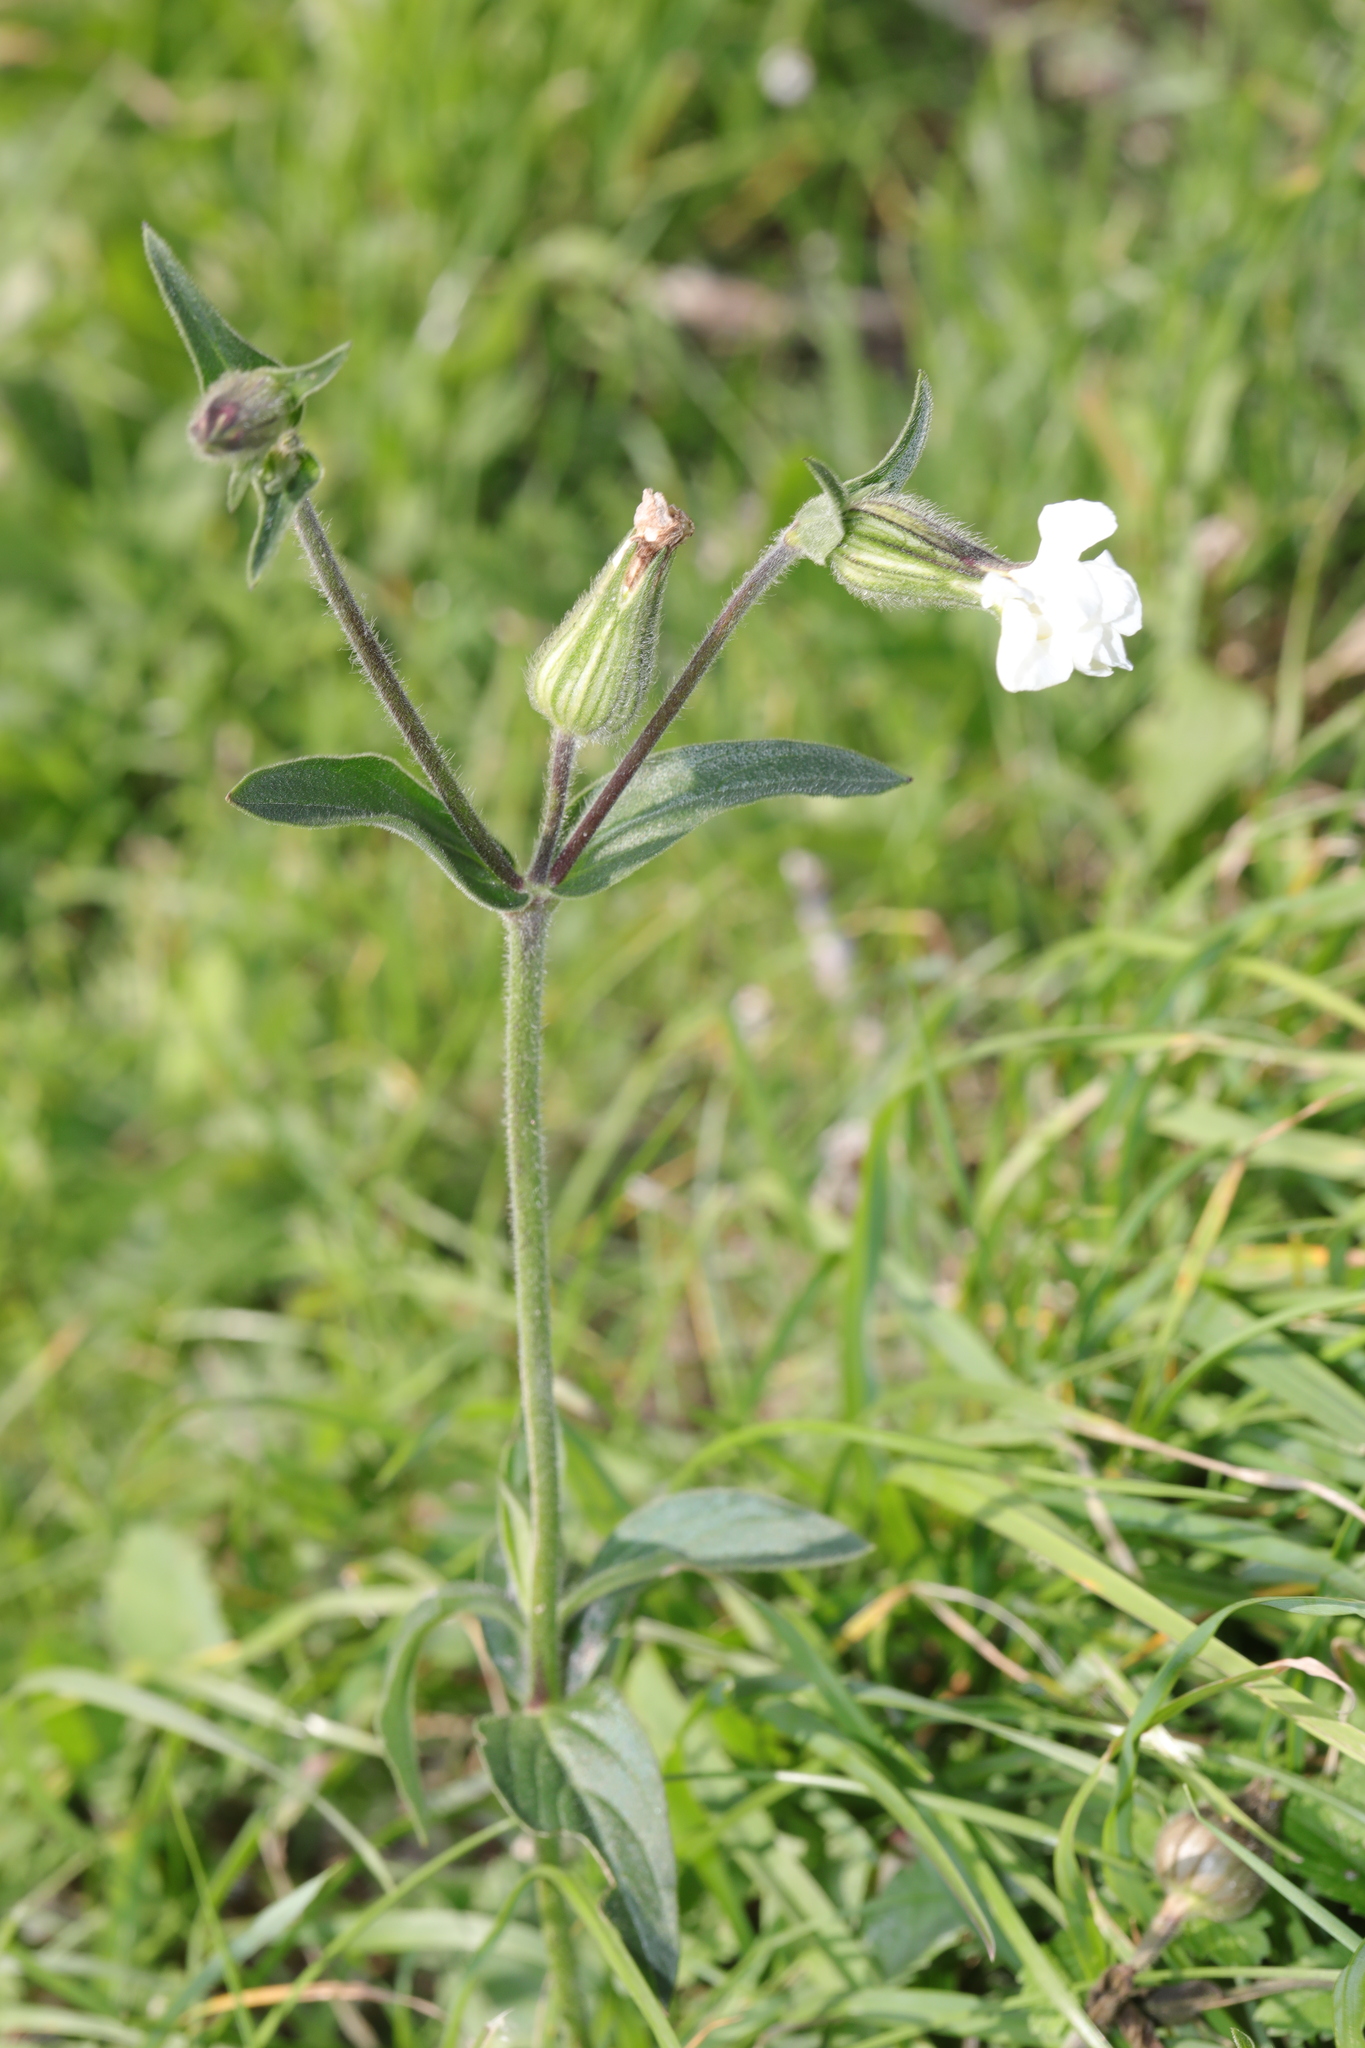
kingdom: Plantae
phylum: Tracheophyta
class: Magnoliopsida
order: Caryophyllales
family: Caryophyllaceae
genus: Silene
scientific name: Silene latifolia
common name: White campion
